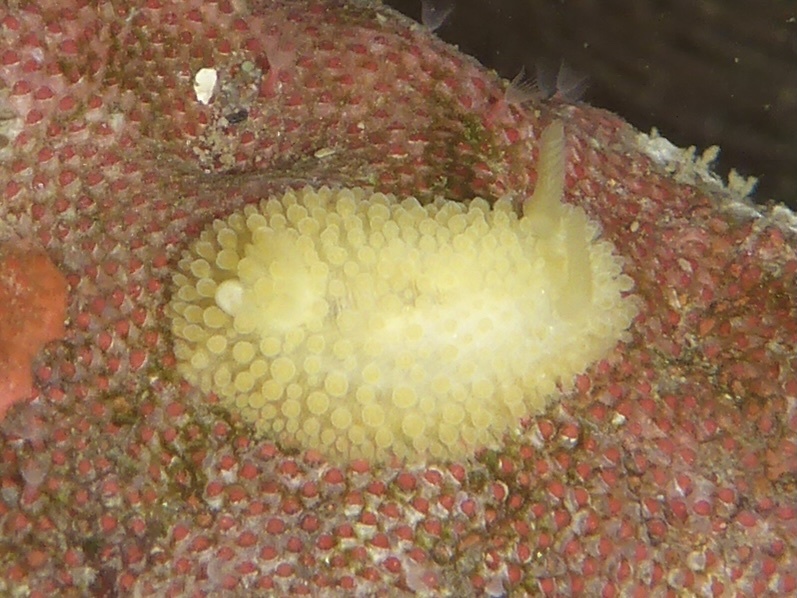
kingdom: Animalia
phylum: Mollusca
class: Gastropoda
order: Nudibranchia
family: Onchidorididae
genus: Atalodoris
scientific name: Atalodoris jannae
